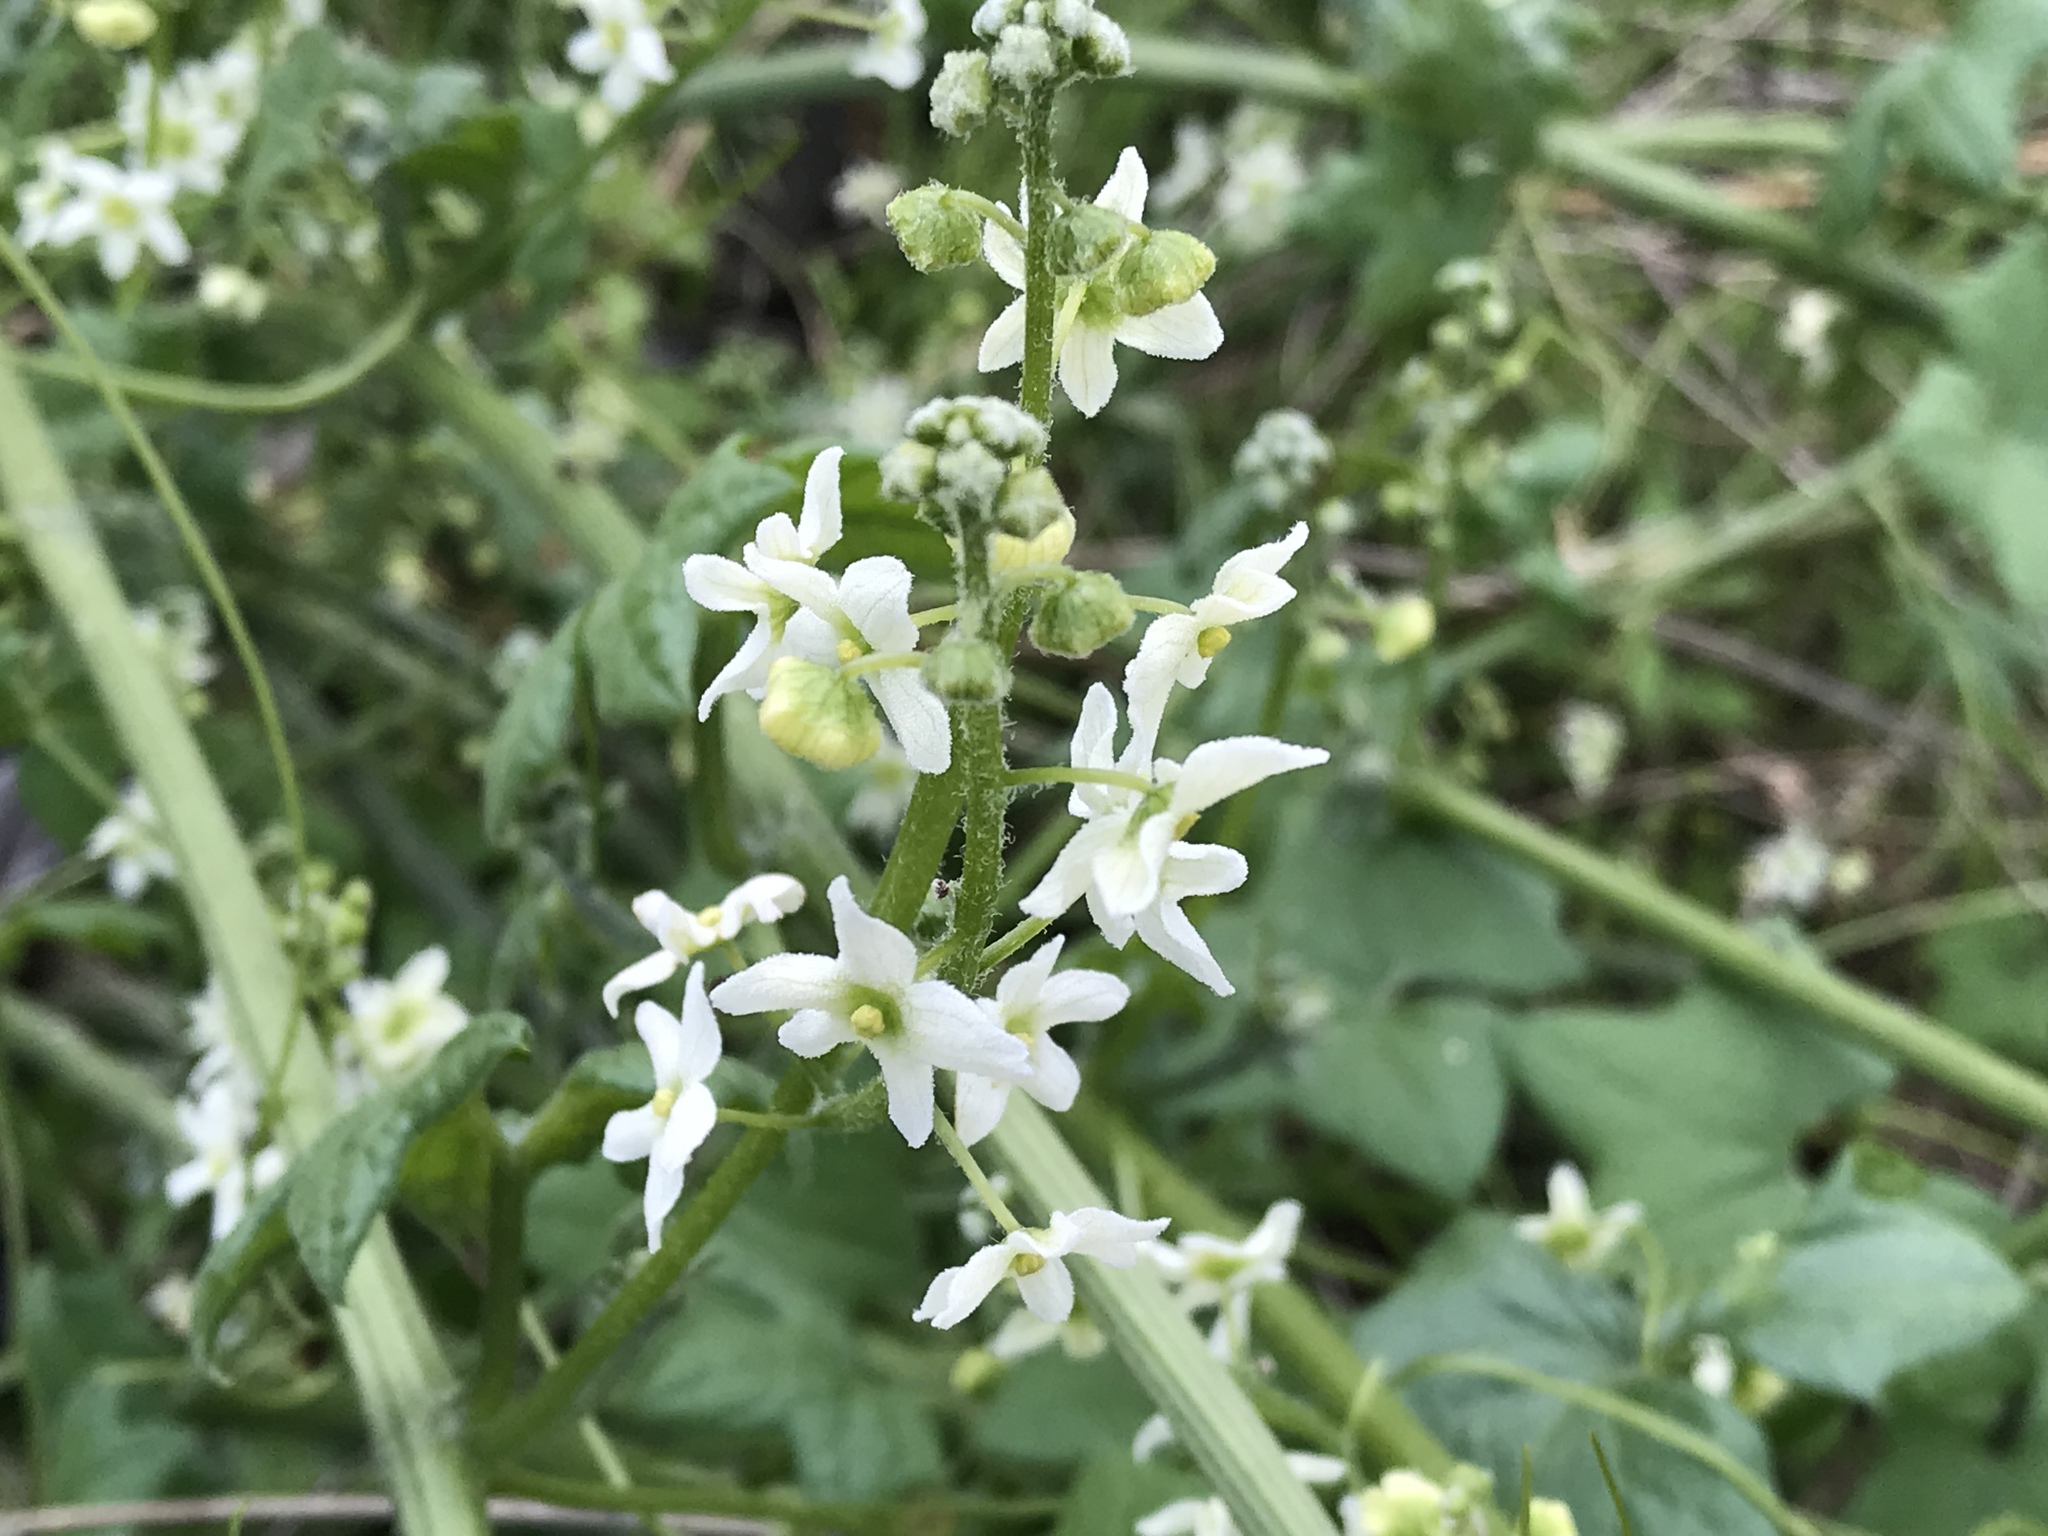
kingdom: Plantae
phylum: Tracheophyta
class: Magnoliopsida
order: Cucurbitales
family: Cucurbitaceae
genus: Marah
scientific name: Marah fabacea
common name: California manroot
